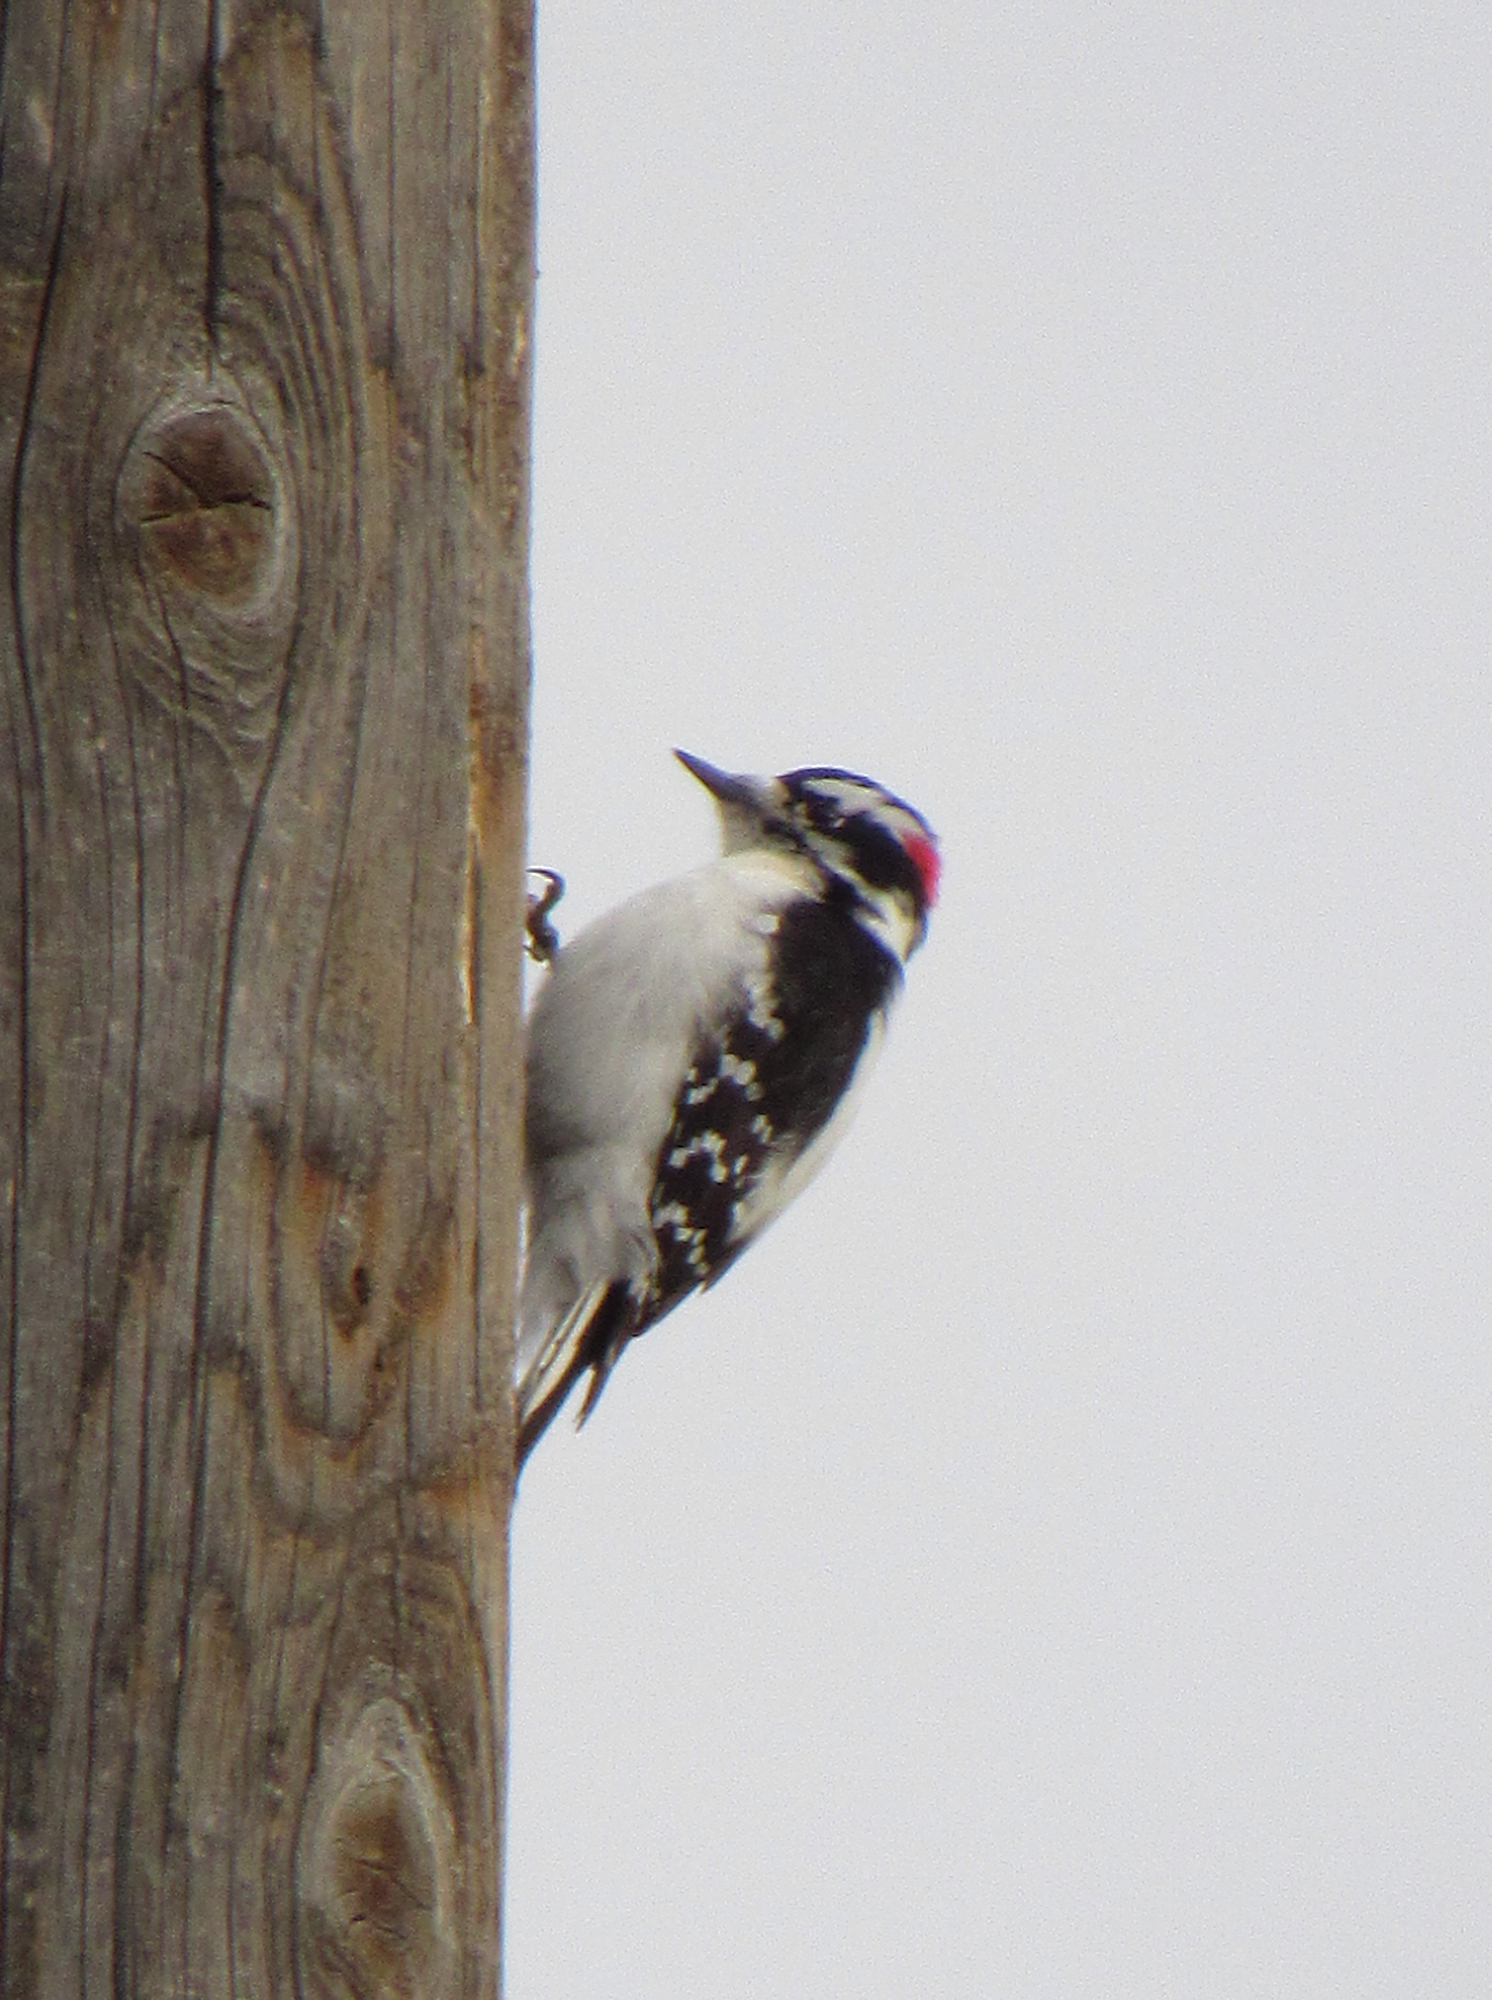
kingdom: Animalia
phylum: Chordata
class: Aves
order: Piciformes
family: Picidae
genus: Dryobates
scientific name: Dryobates pubescens
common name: Downy woodpecker
